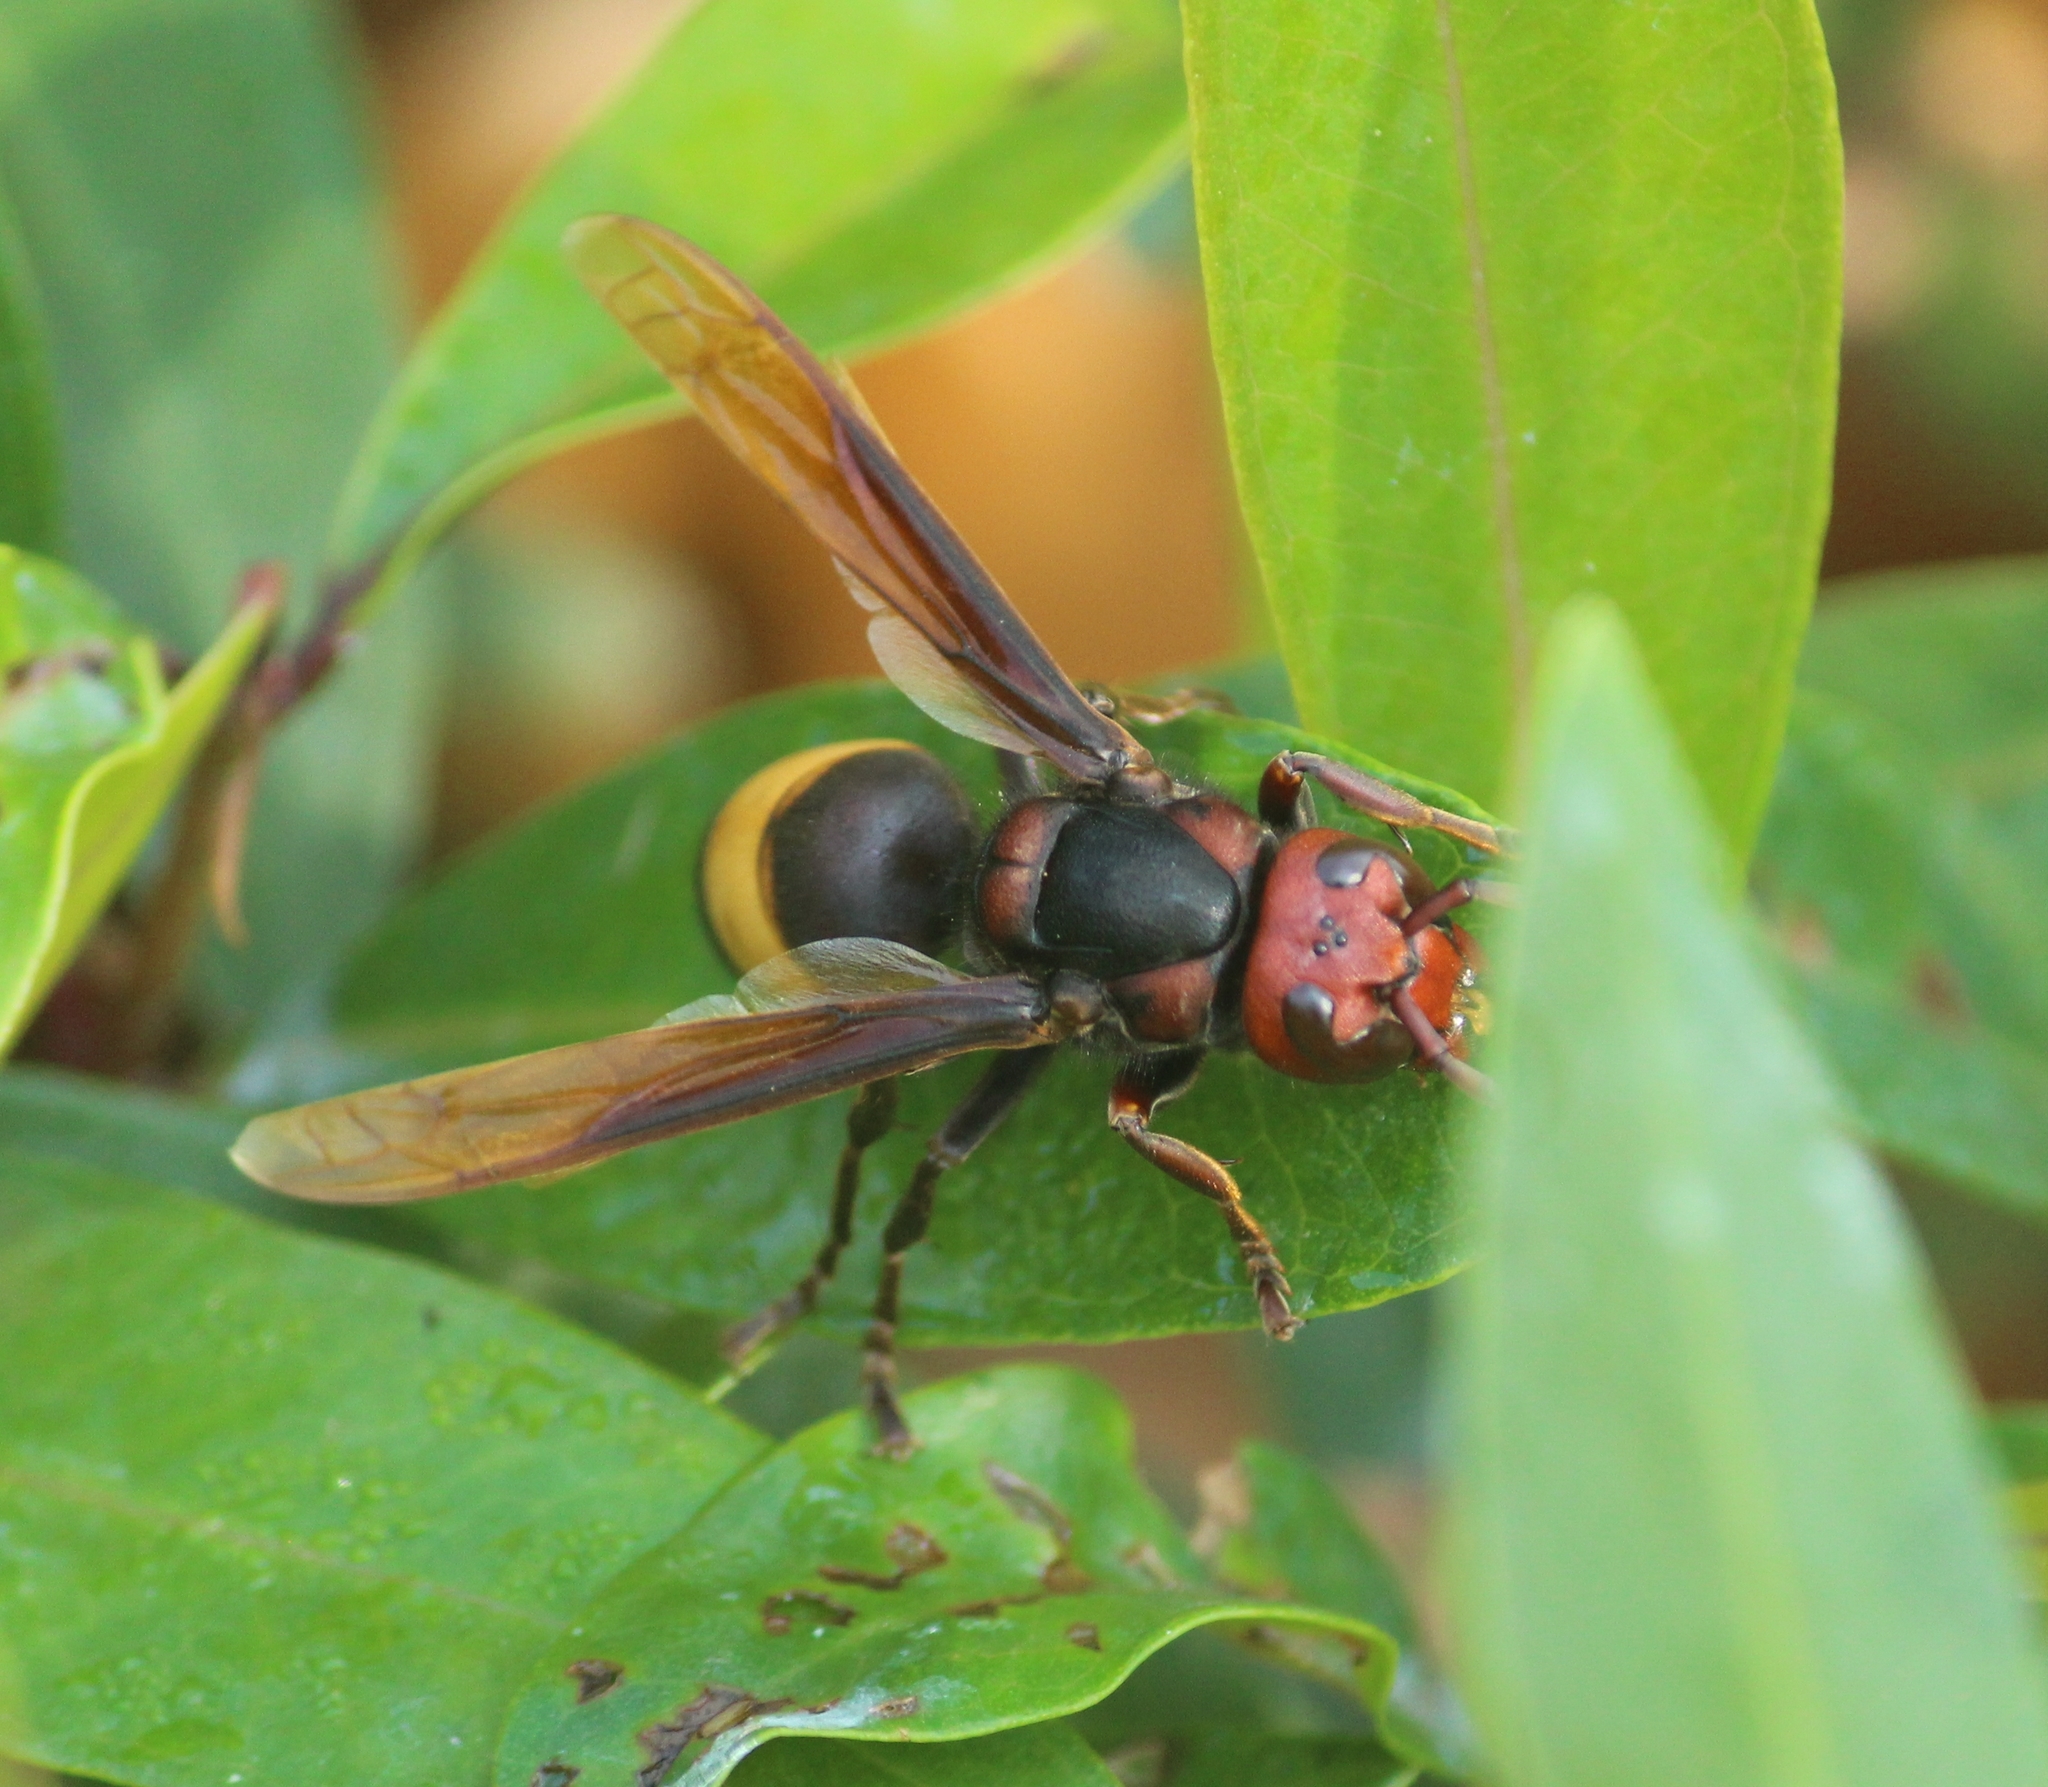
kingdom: Animalia
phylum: Arthropoda
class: Insecta
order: Hymenoptera
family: Vespidae
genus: Vespa
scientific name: Vespa tropica
